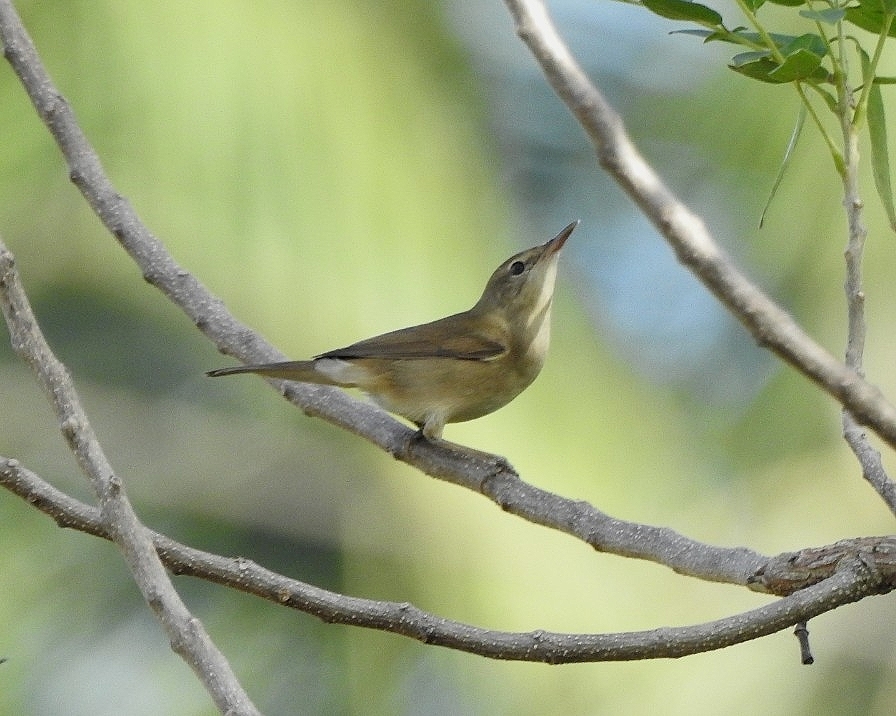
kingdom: Animalia
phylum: Chordata
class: Aves
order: Passeriformes
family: Acrocephalidae
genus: Acrocephalus
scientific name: Acrocephalus dumetorum
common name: Blyth's reed warbler
